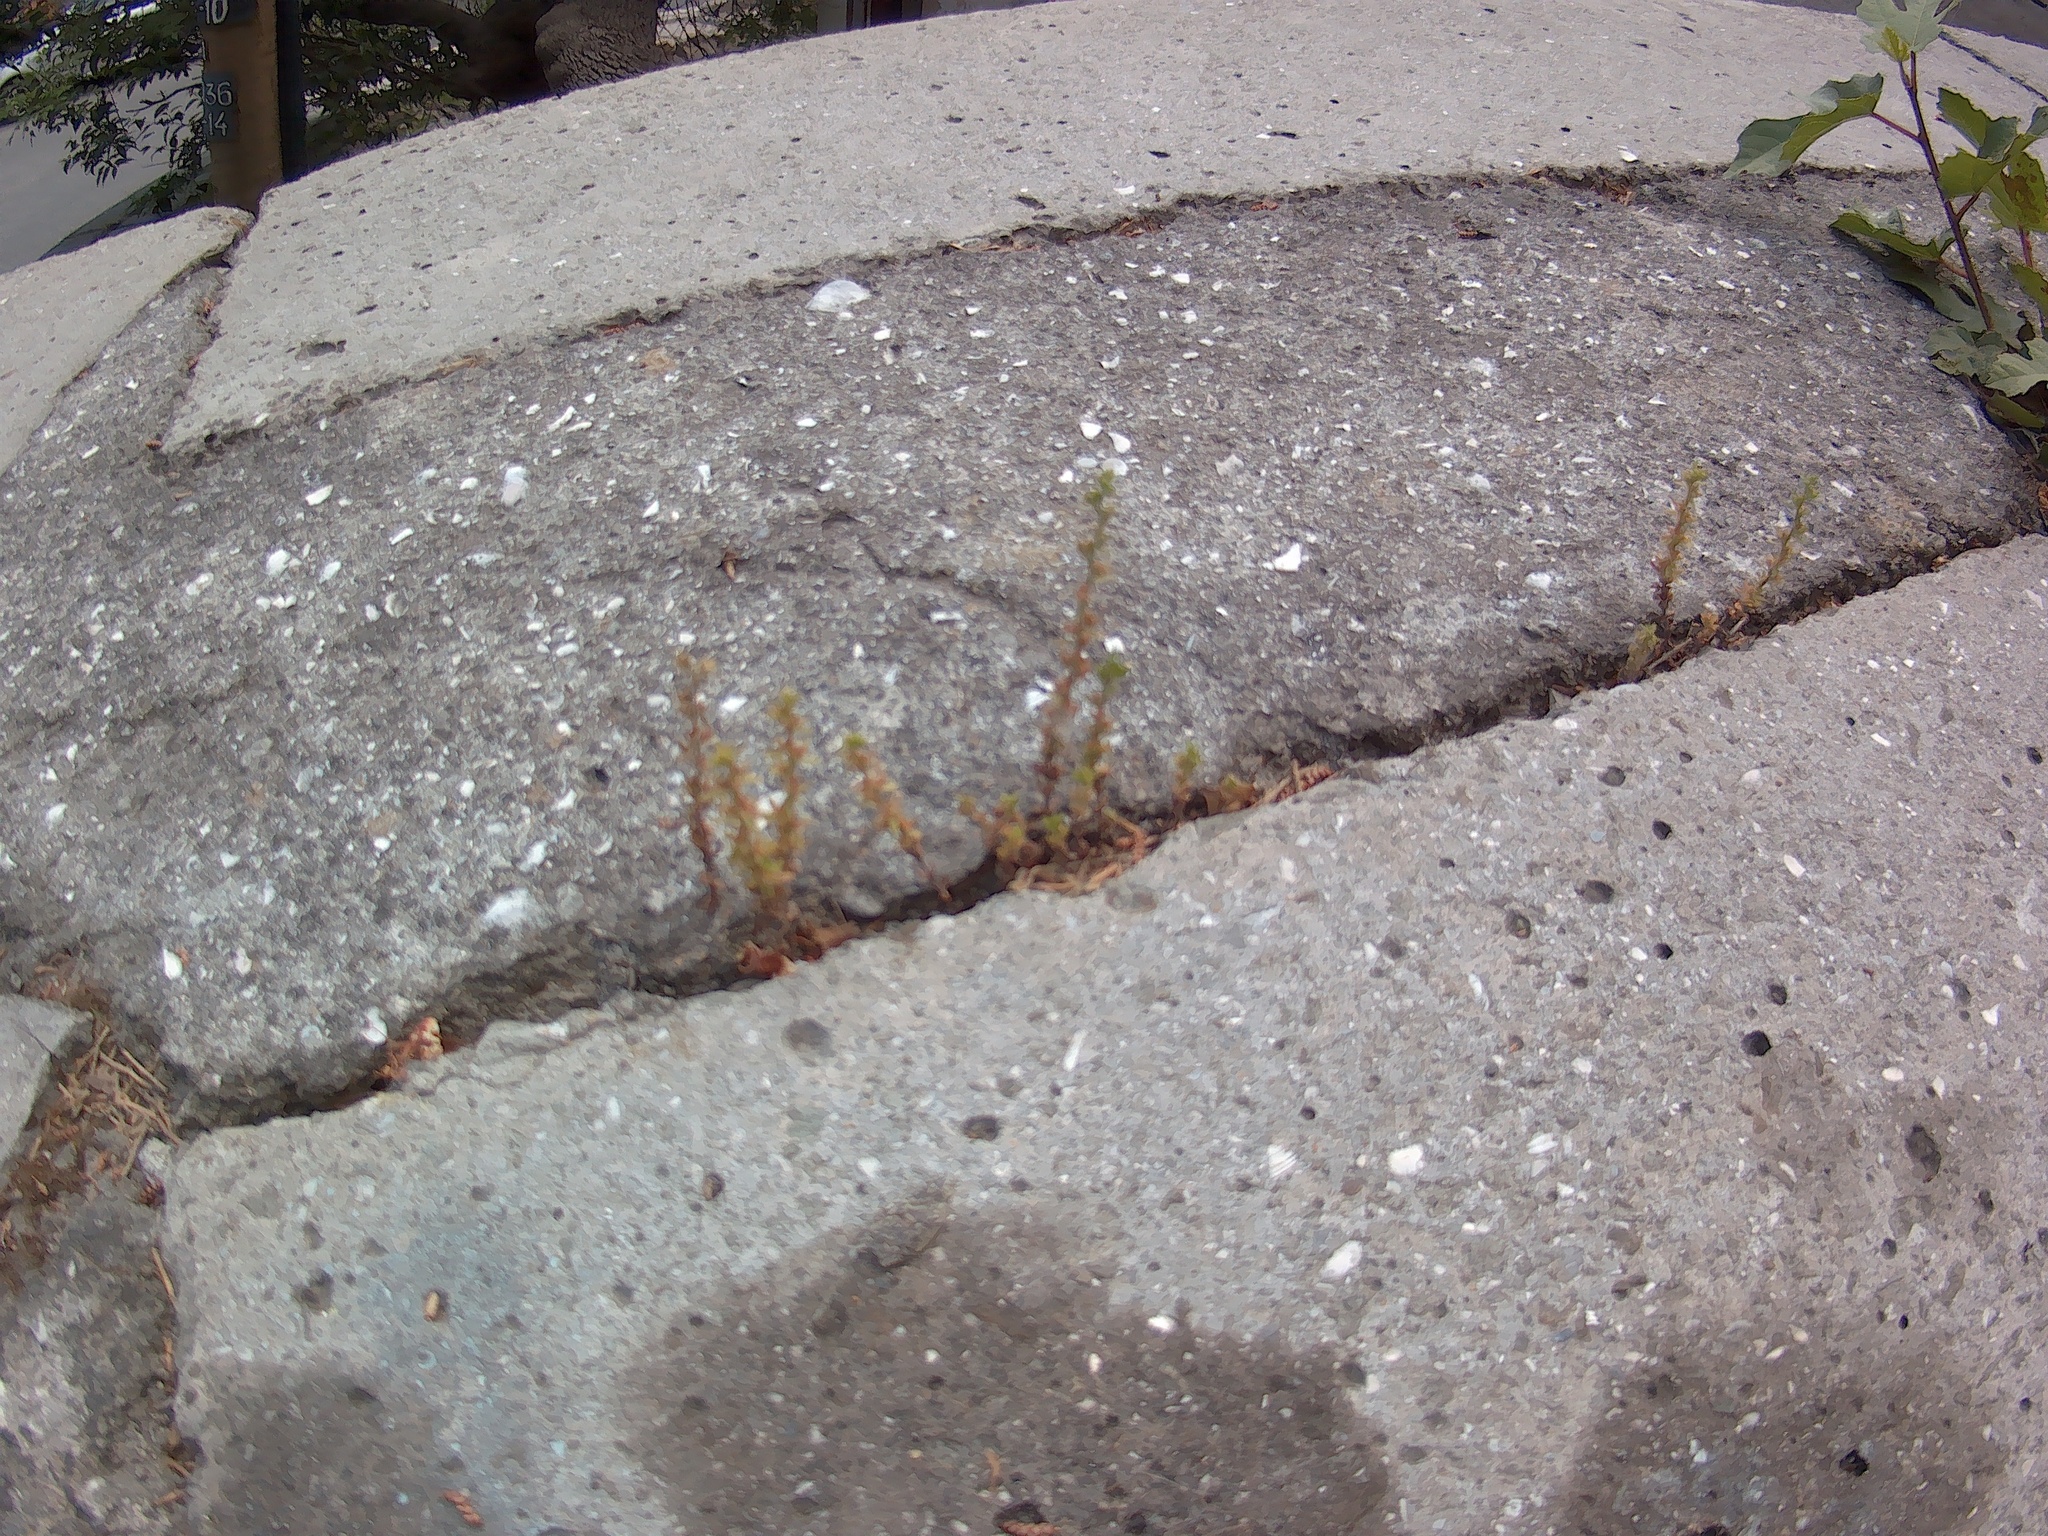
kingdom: Plantae
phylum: Tracheophyta
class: Magnoliopsida
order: Lamiales
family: Plantaginaceae
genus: Veronica
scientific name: Veronica arvensis
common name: Corn speedwell
